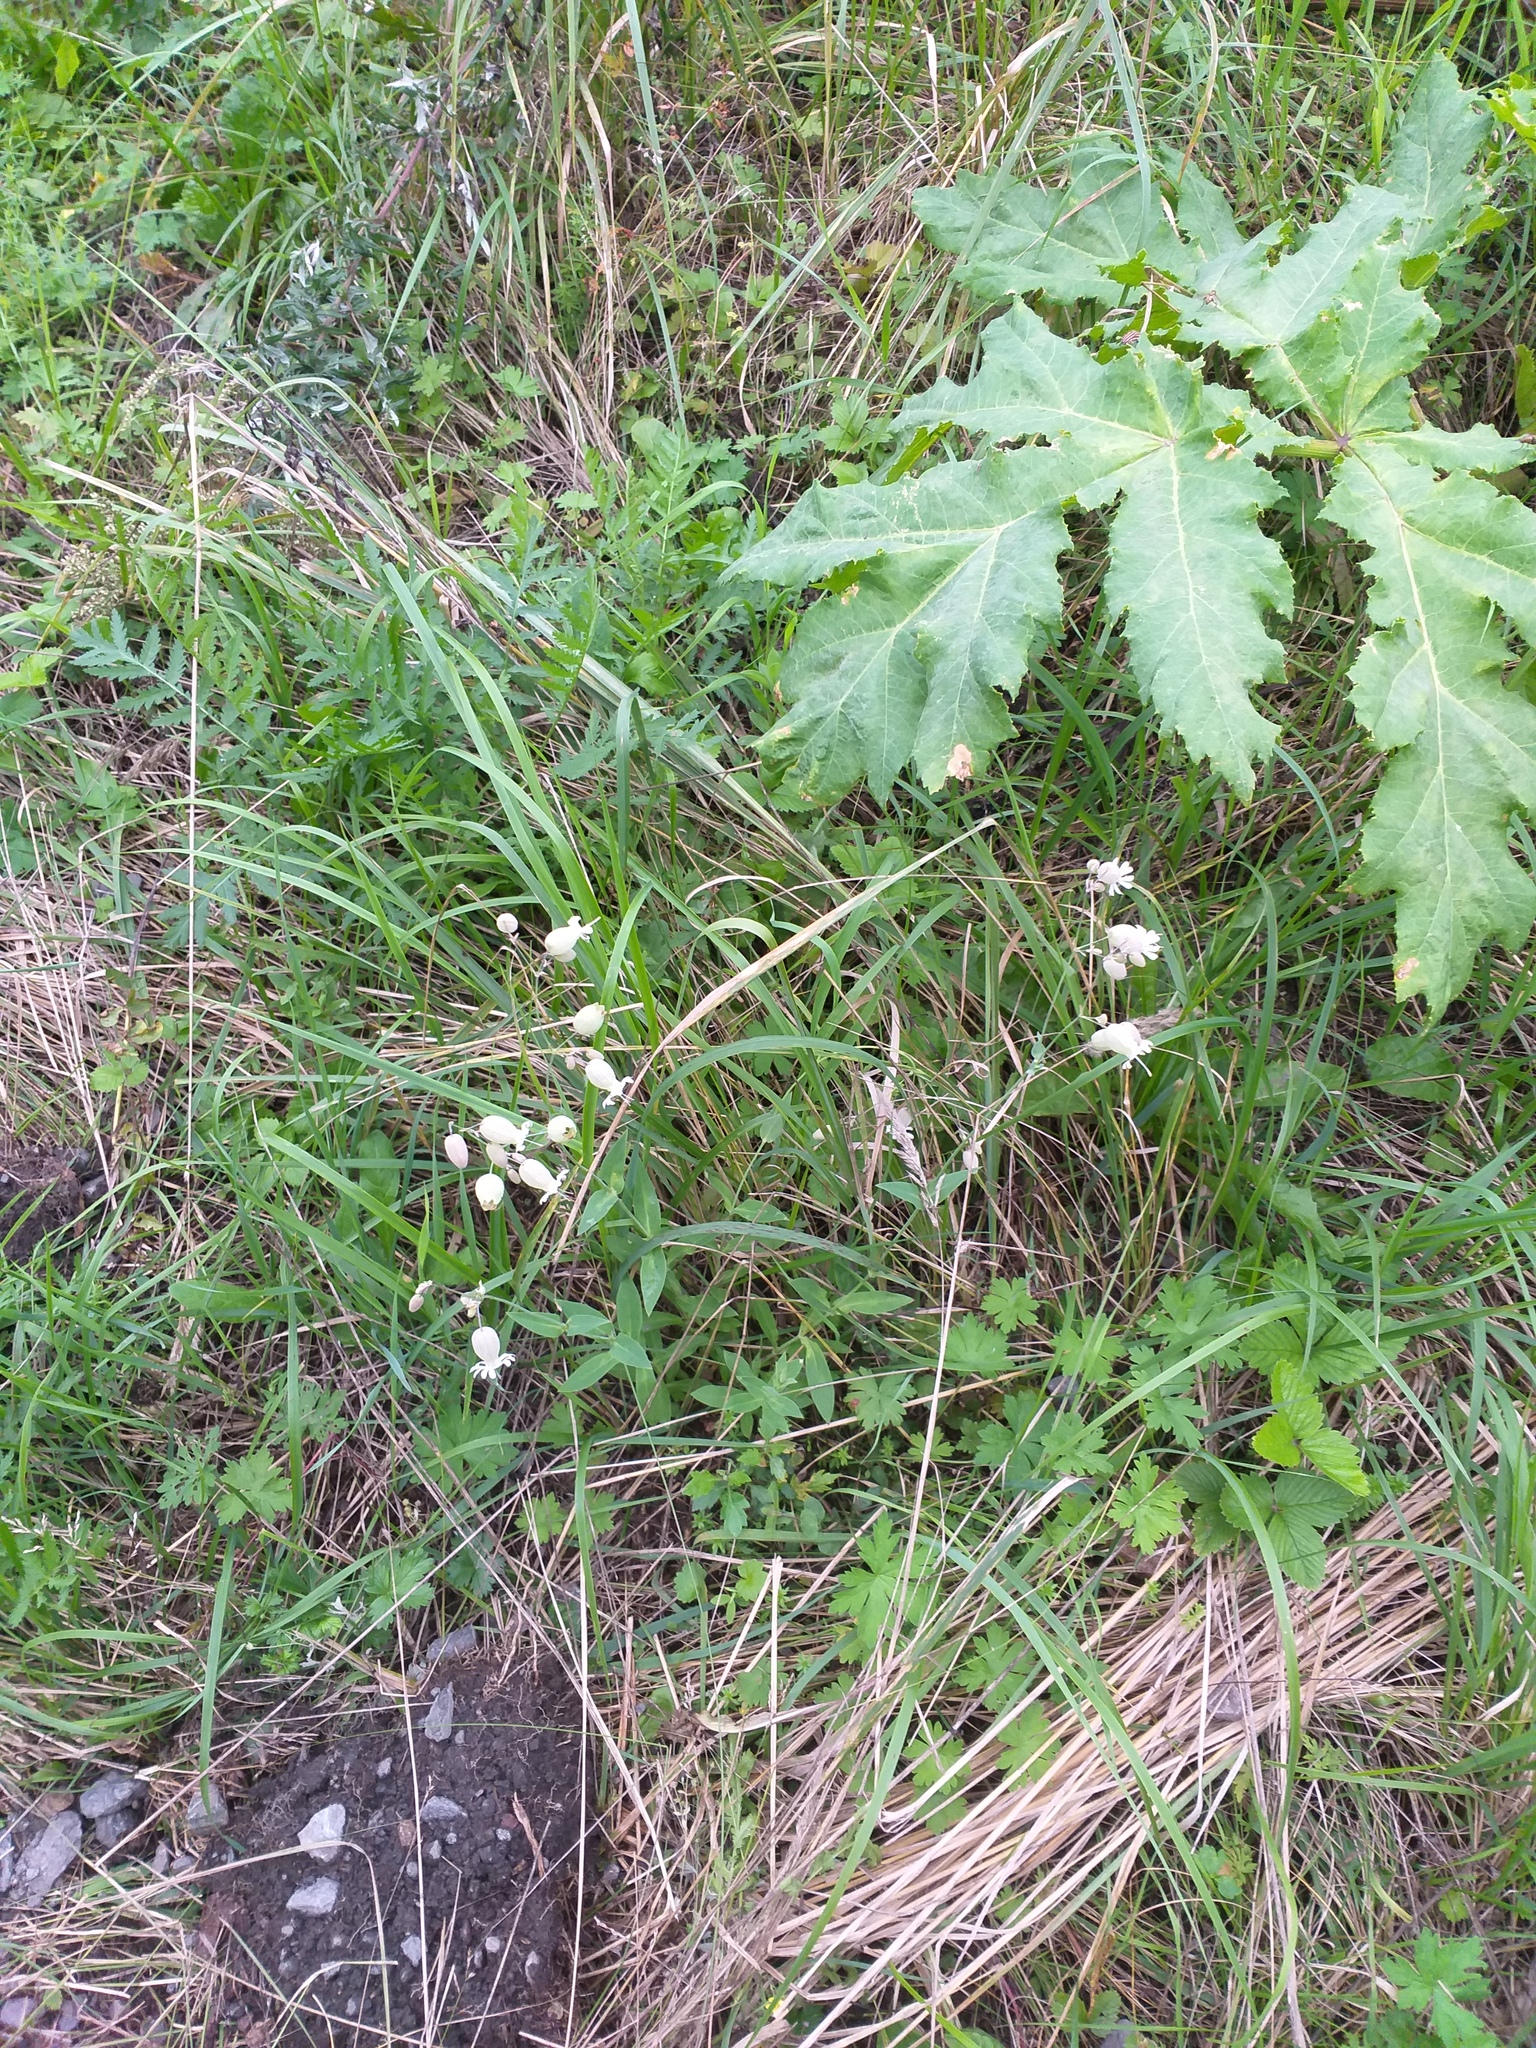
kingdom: Plantae
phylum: Tracheophyta
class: Magnoliopsida
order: Caryophyllales
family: Caryophyllaceae
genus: Silene
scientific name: Silene vulgaris
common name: Bladder campion
